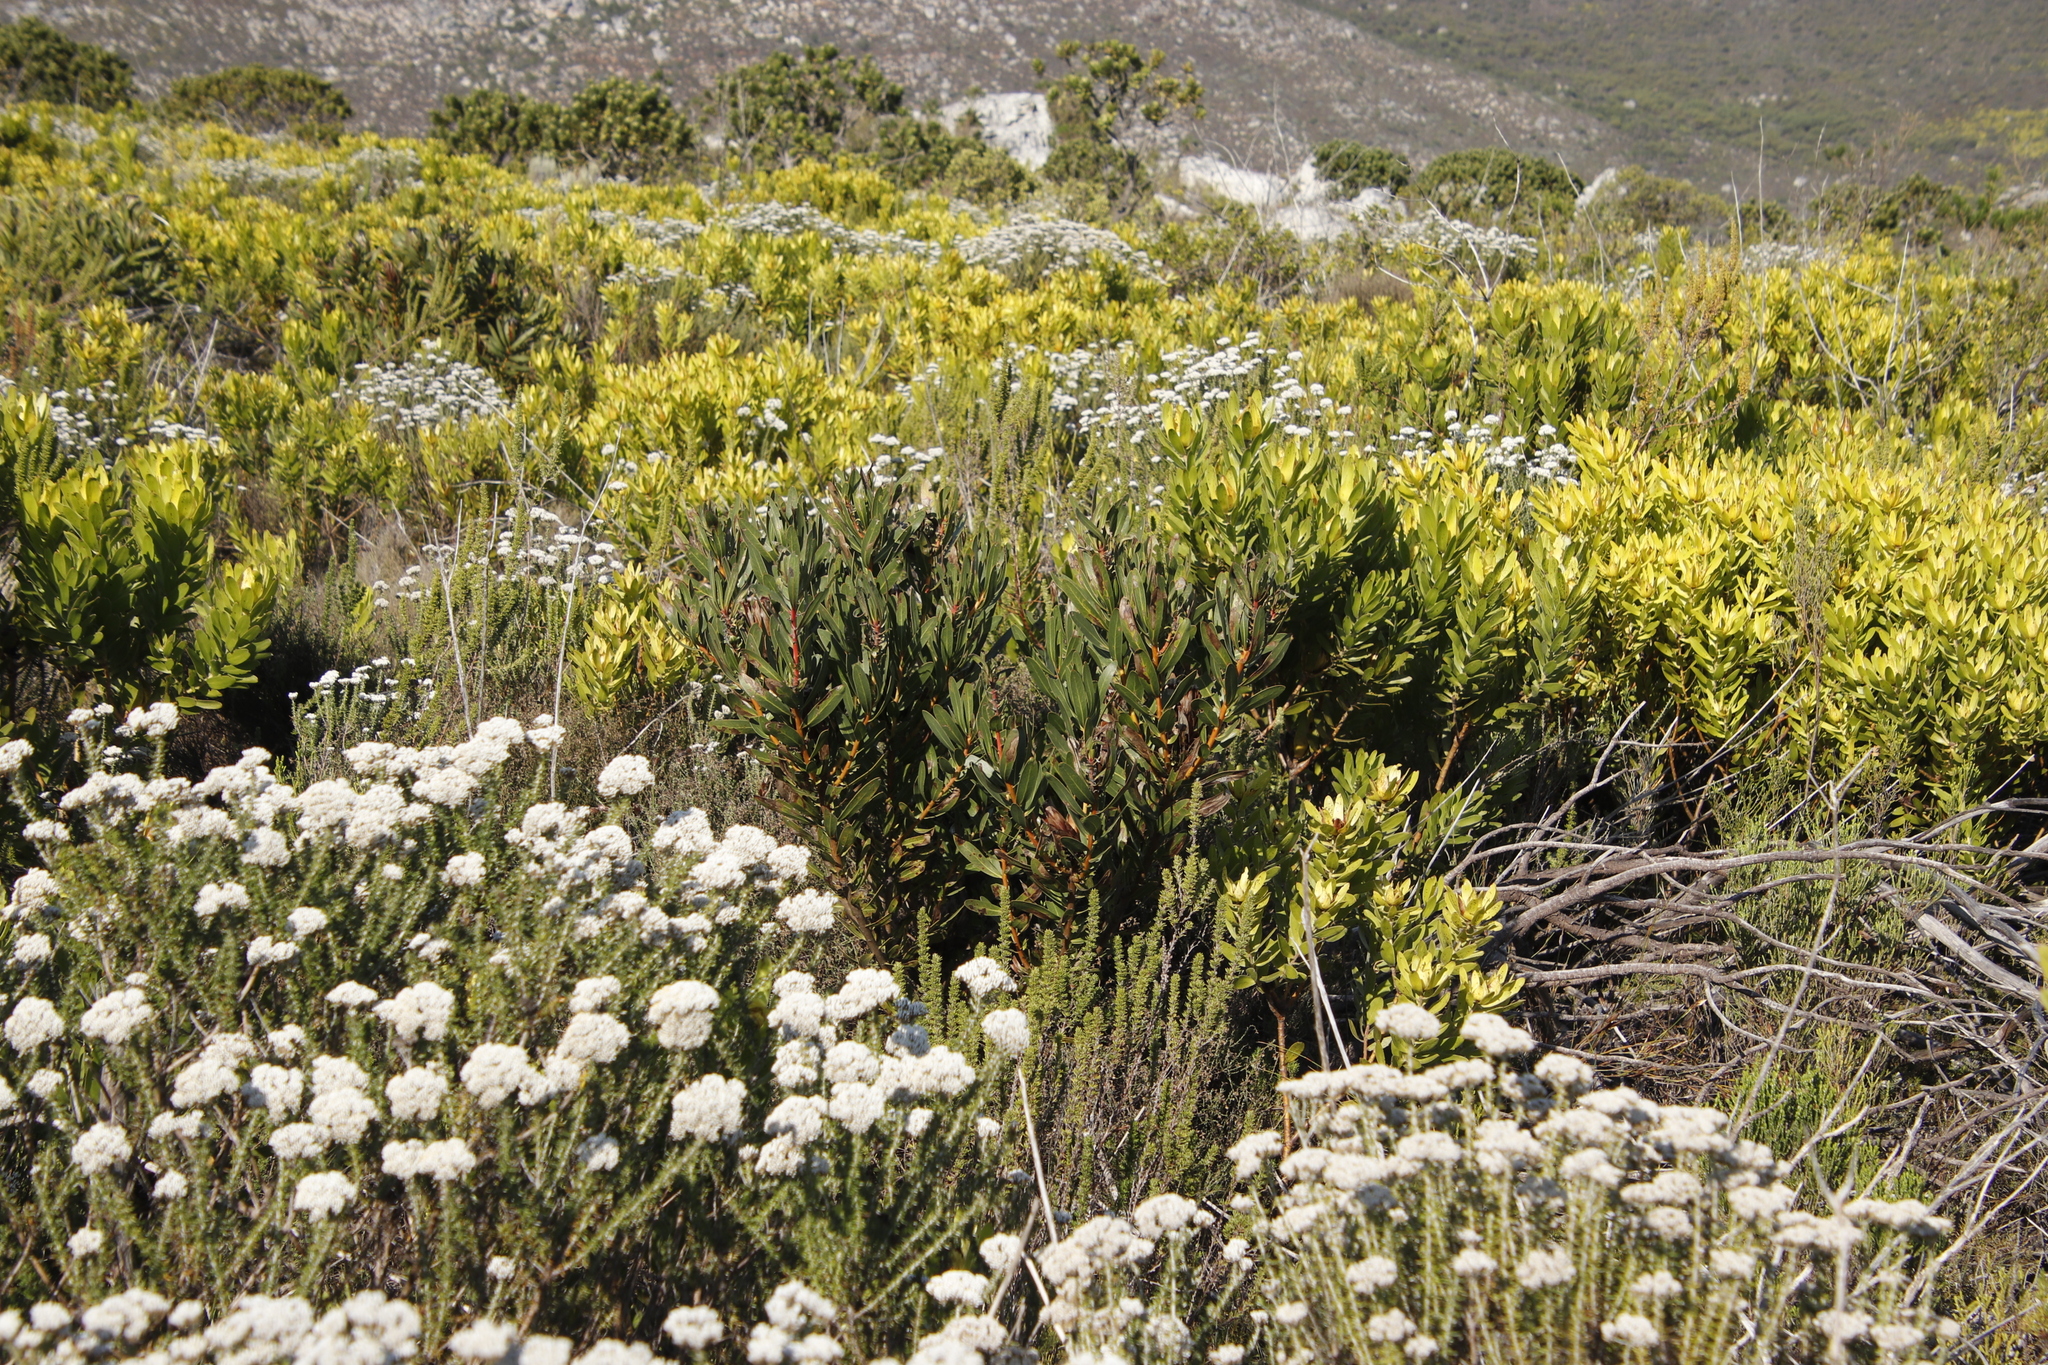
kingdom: Plantae
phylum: Tracheophyta
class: Magnoliopsida
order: Proteales
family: Proteaceae
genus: Protea
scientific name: Protea lepidocarpodendron
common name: Black-bearded protea
